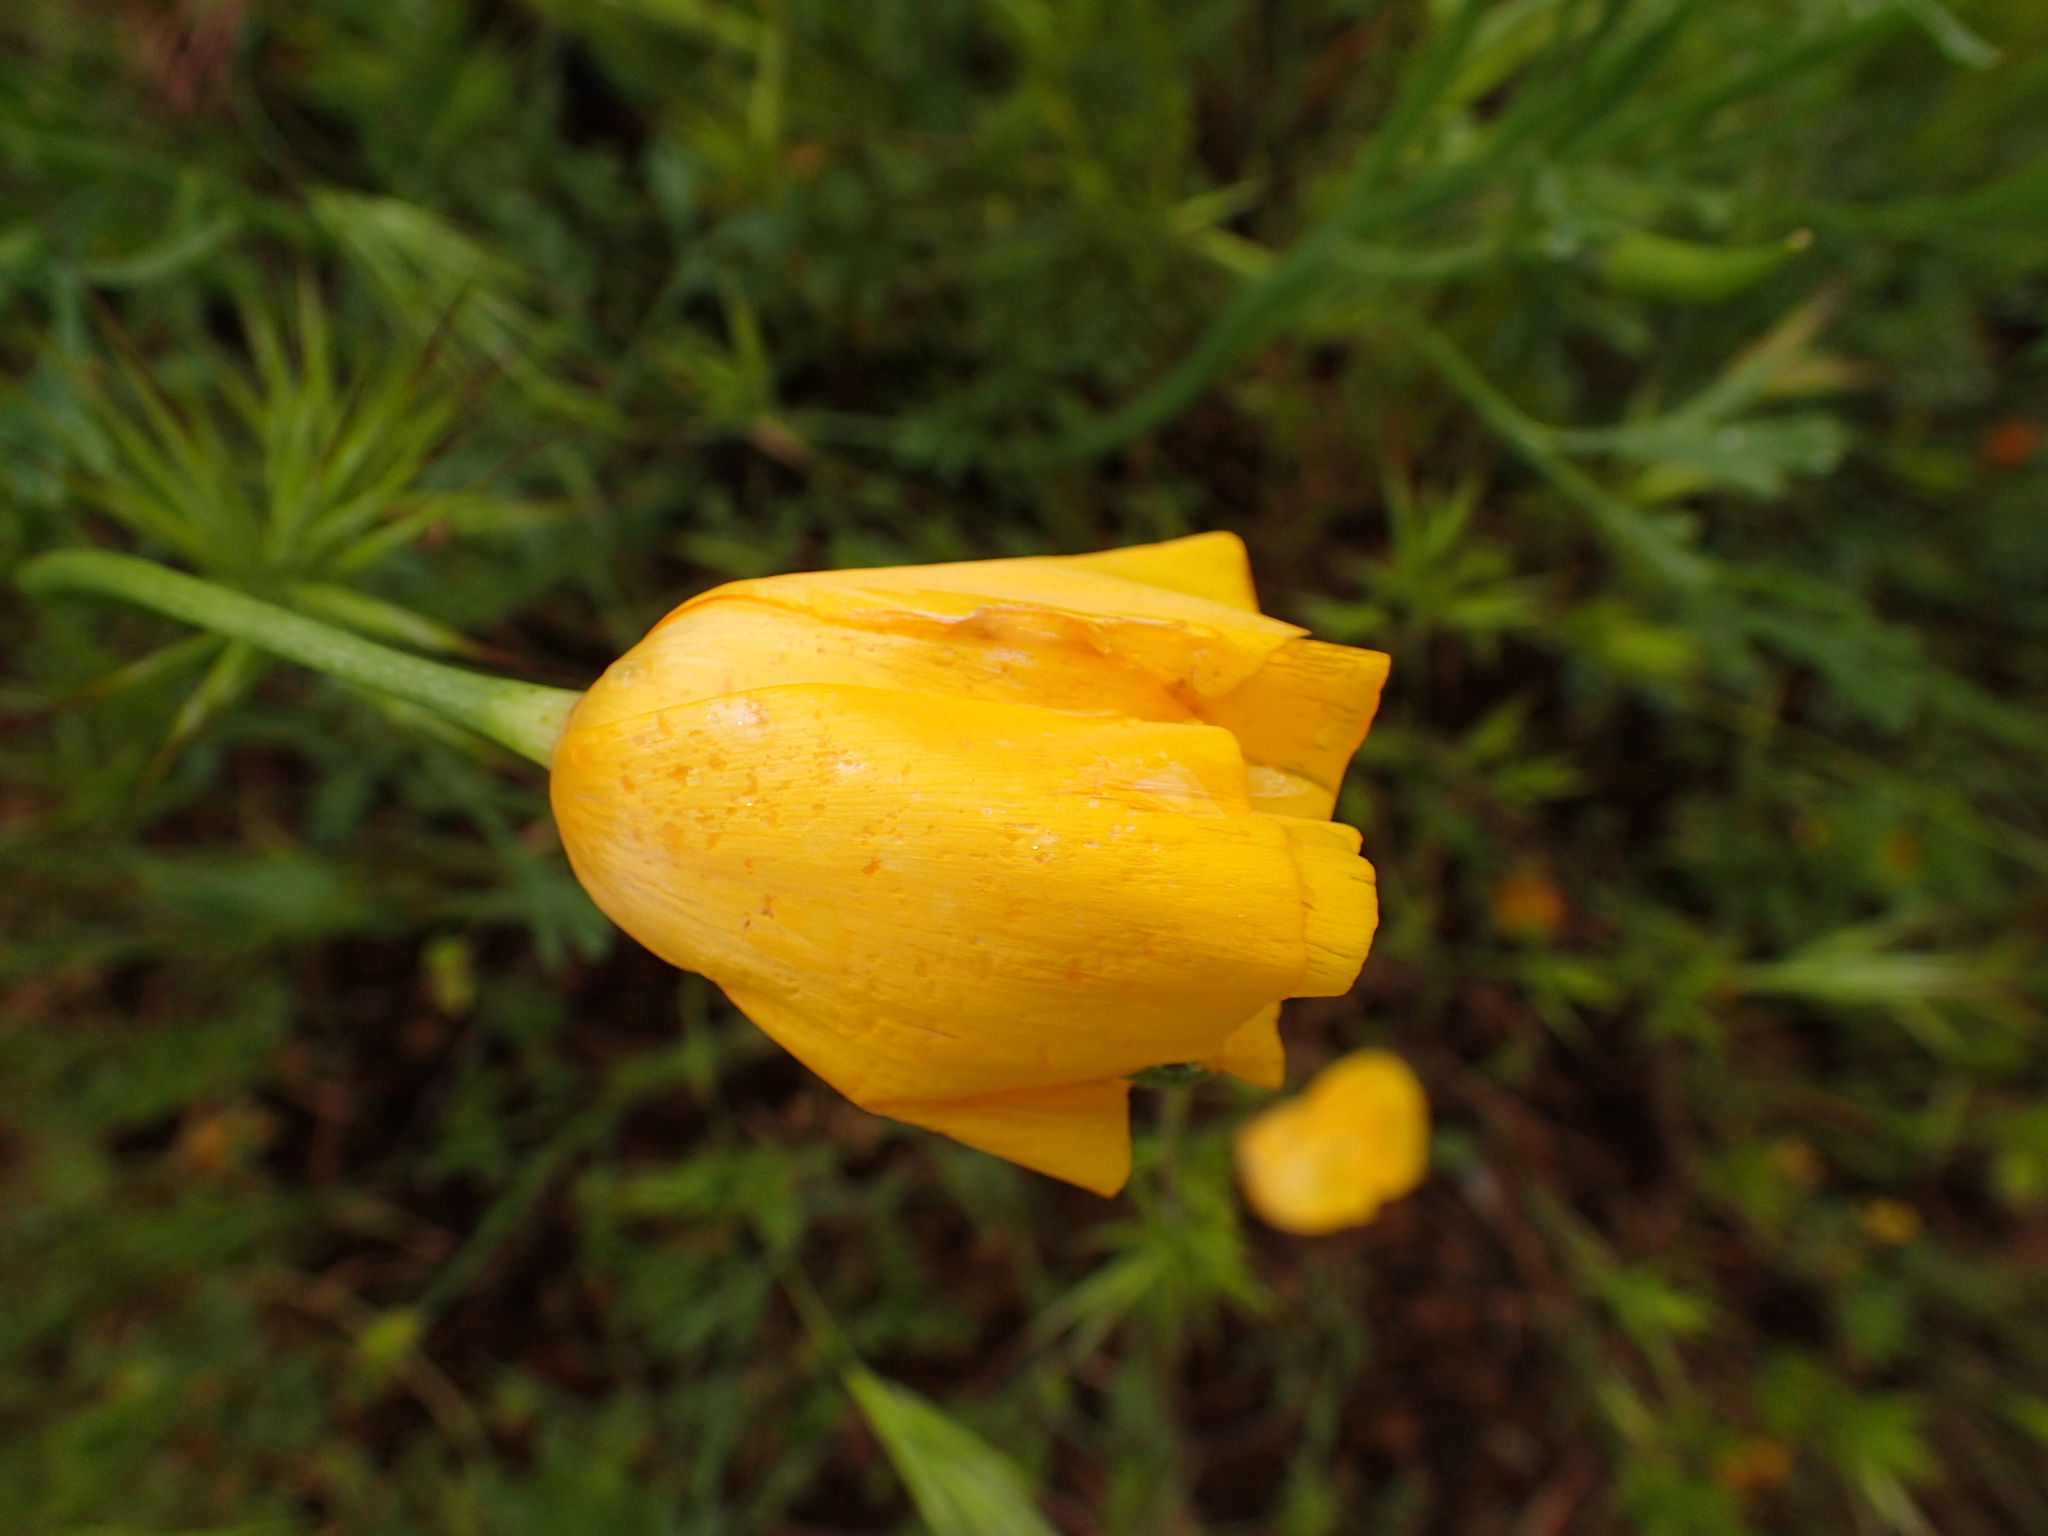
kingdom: Plantae
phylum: Tracheophyta
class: Magnoliopsida
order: Ranunculales
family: Papaveraceae
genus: Eschscholzia
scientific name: Eschscholzia caespitosa
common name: Tufted california-poppy
